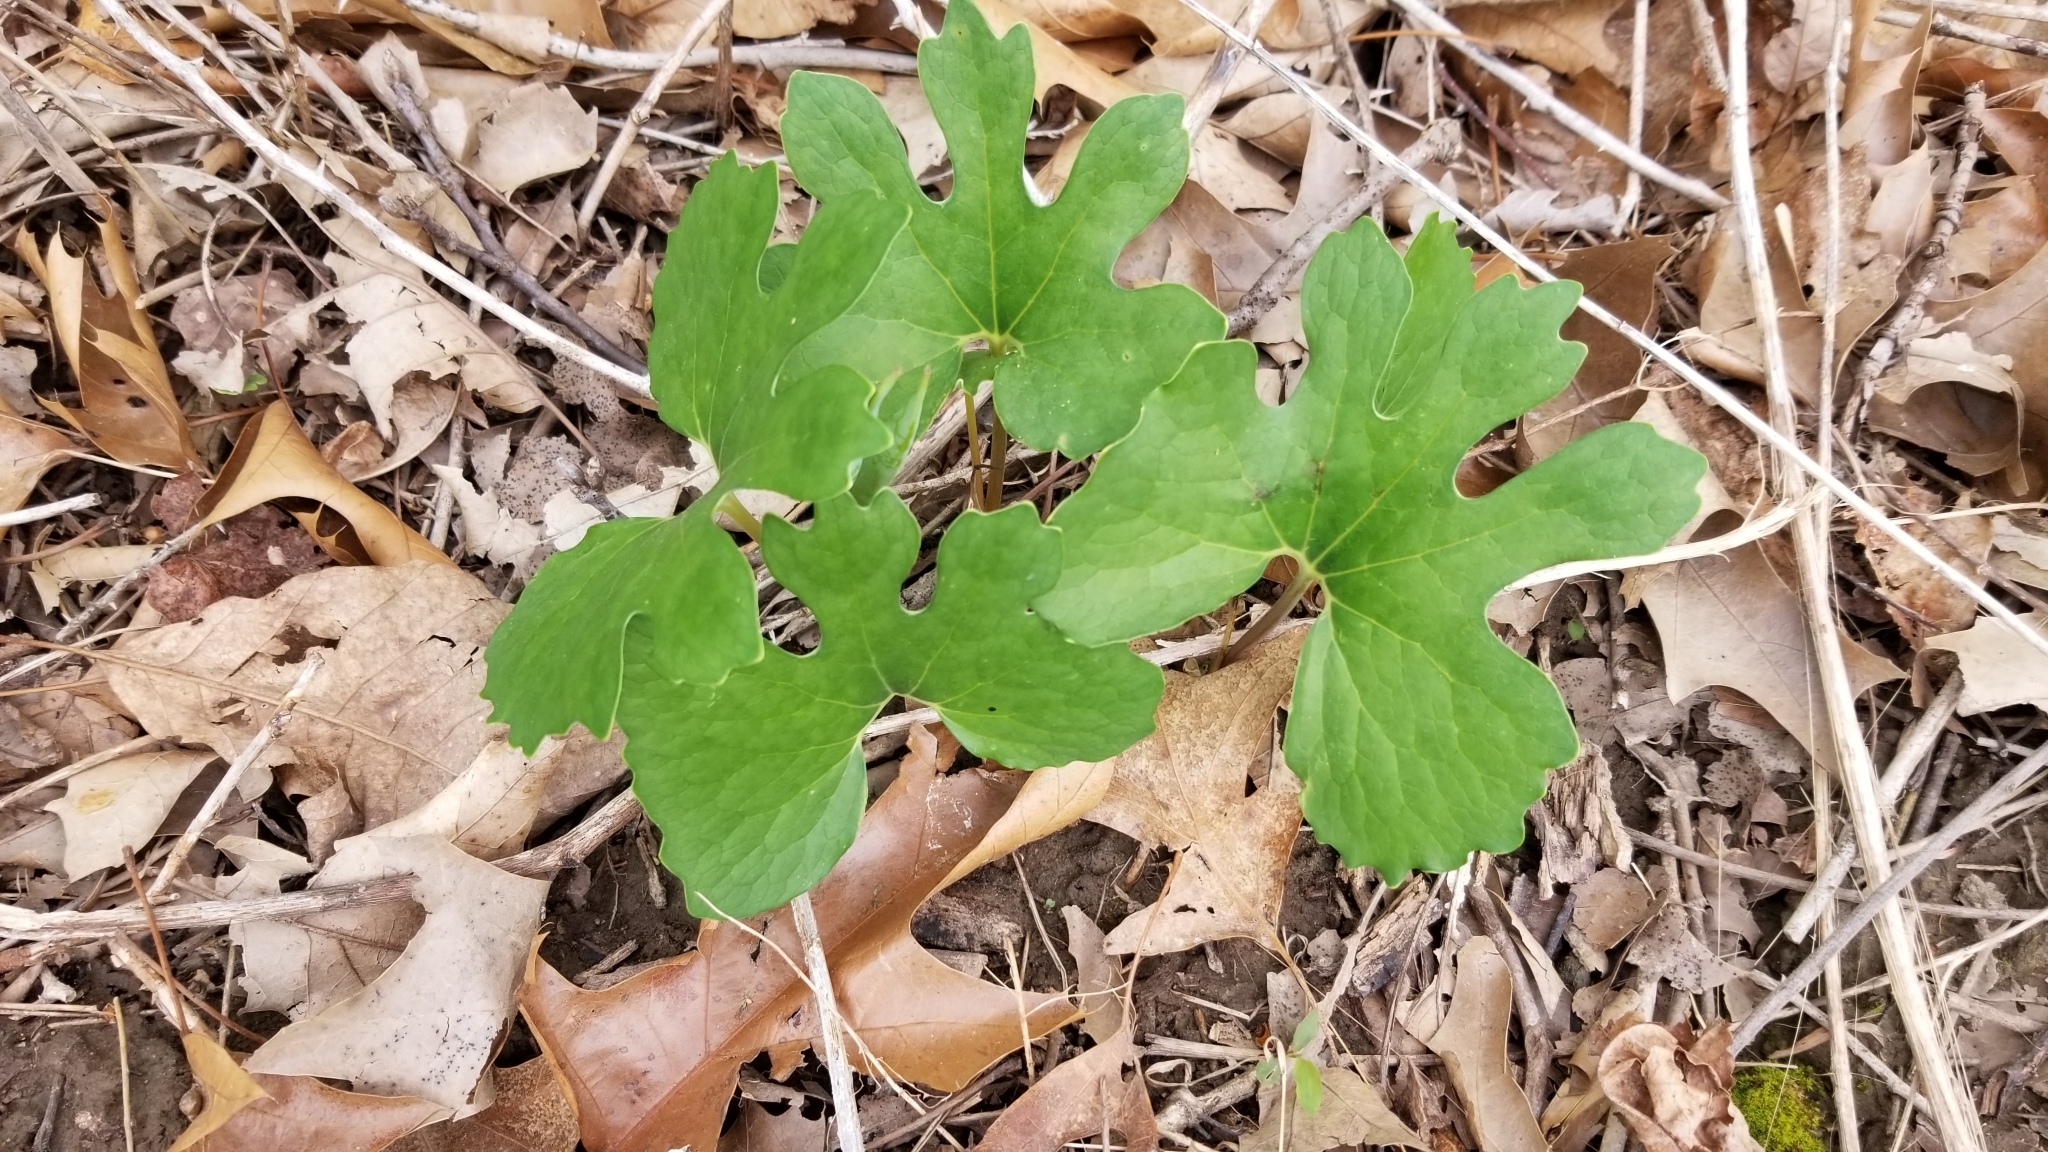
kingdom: Plantae
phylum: Tracheophyta
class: Magnoliopsida
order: Ranunculales
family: Papaveraceae
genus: Sanguinaria
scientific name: Sanguinaria canadensis
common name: Bloodroot
